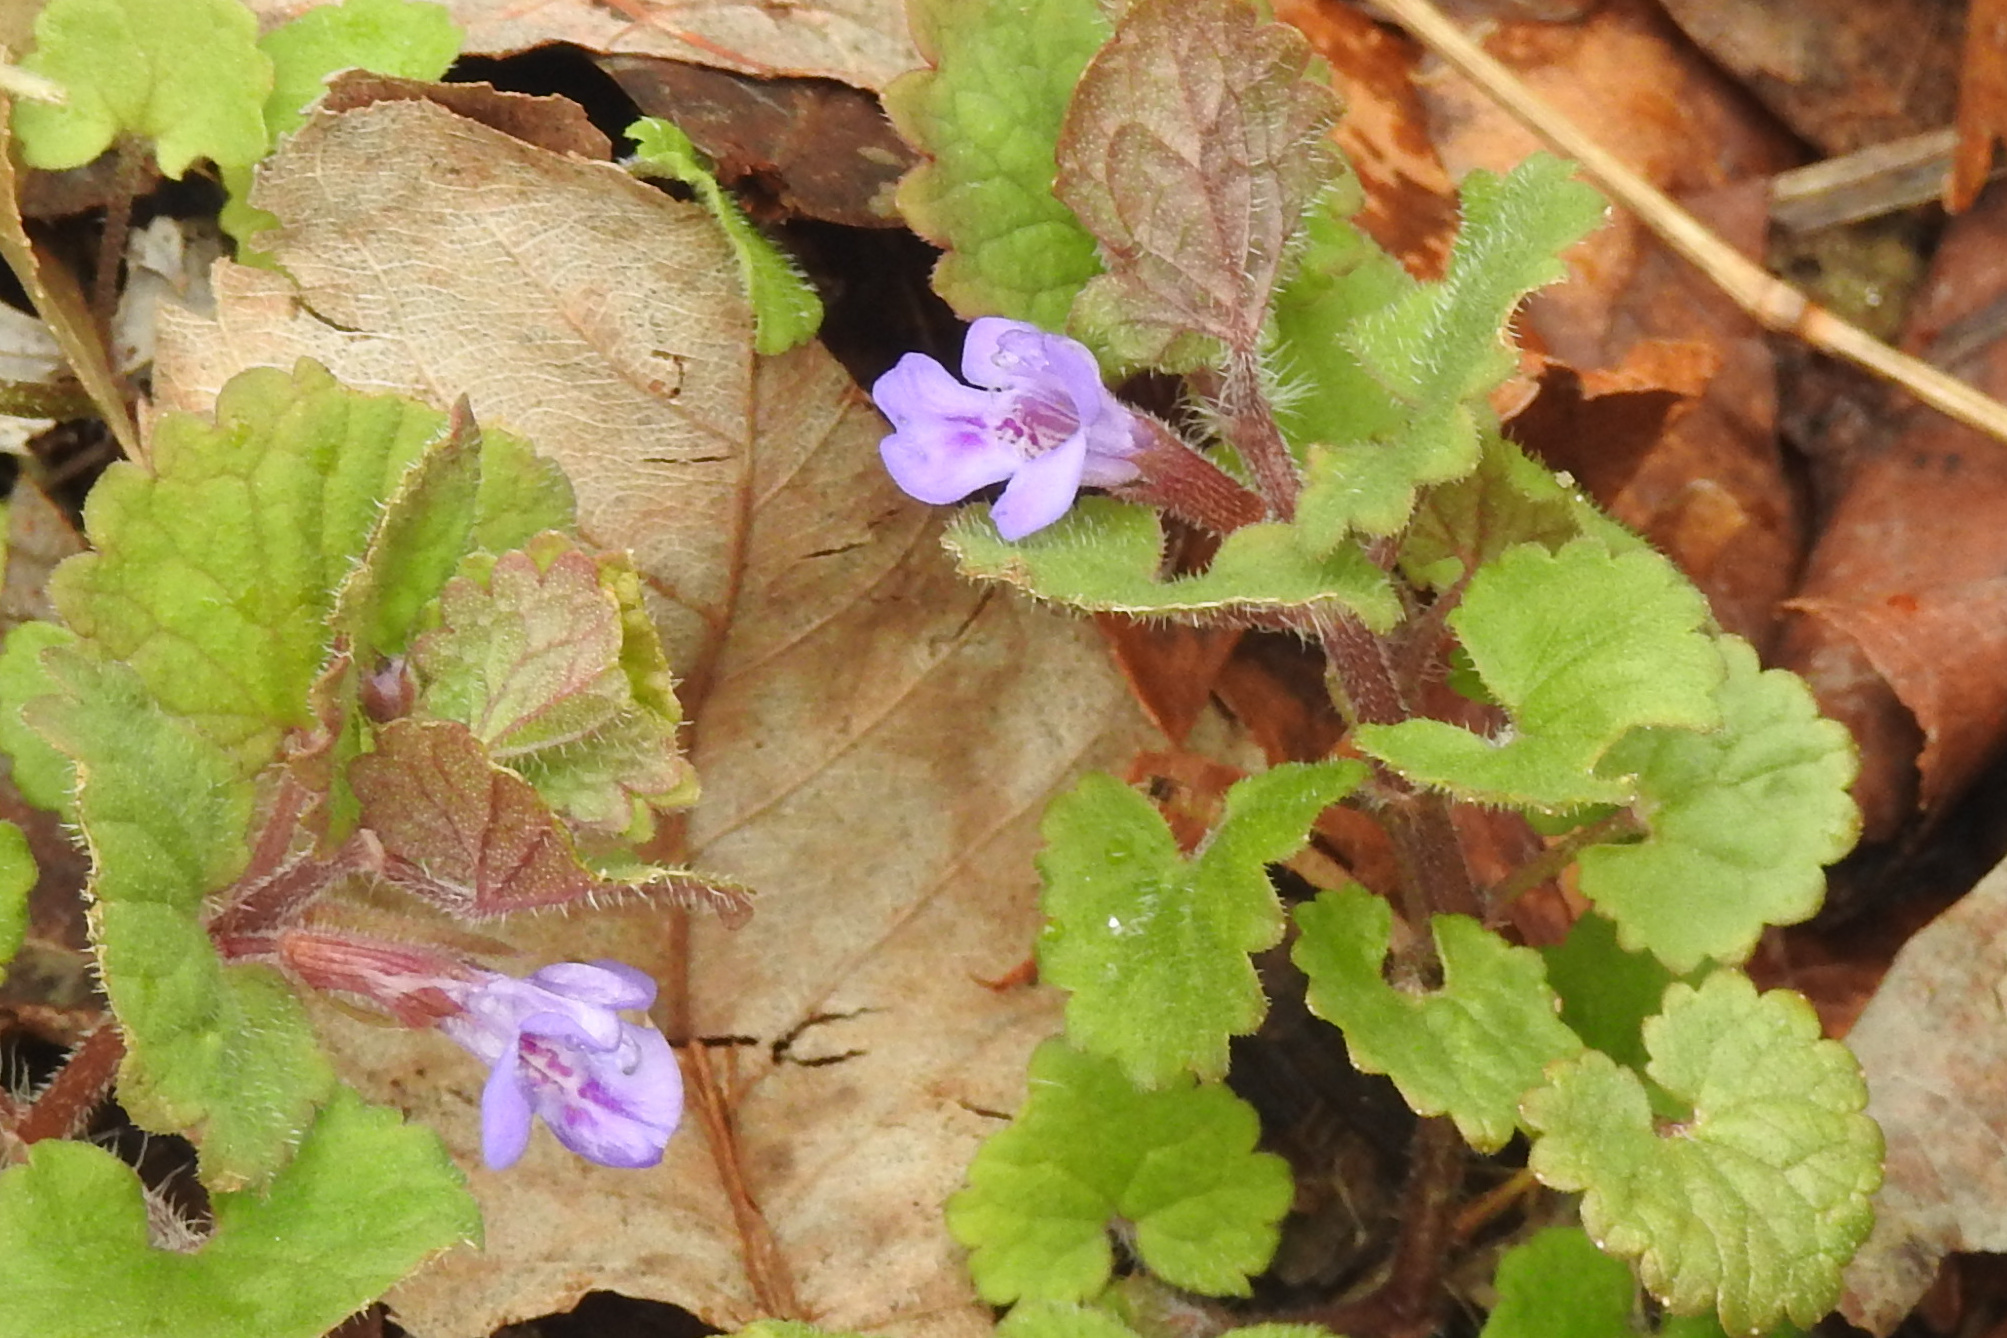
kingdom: Plantae
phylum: Tracheophyta
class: Magnoliopsida
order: Lamiales
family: Lamiaceae
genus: Glechoma
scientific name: Glechoma hederacea
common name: Ground ivy
